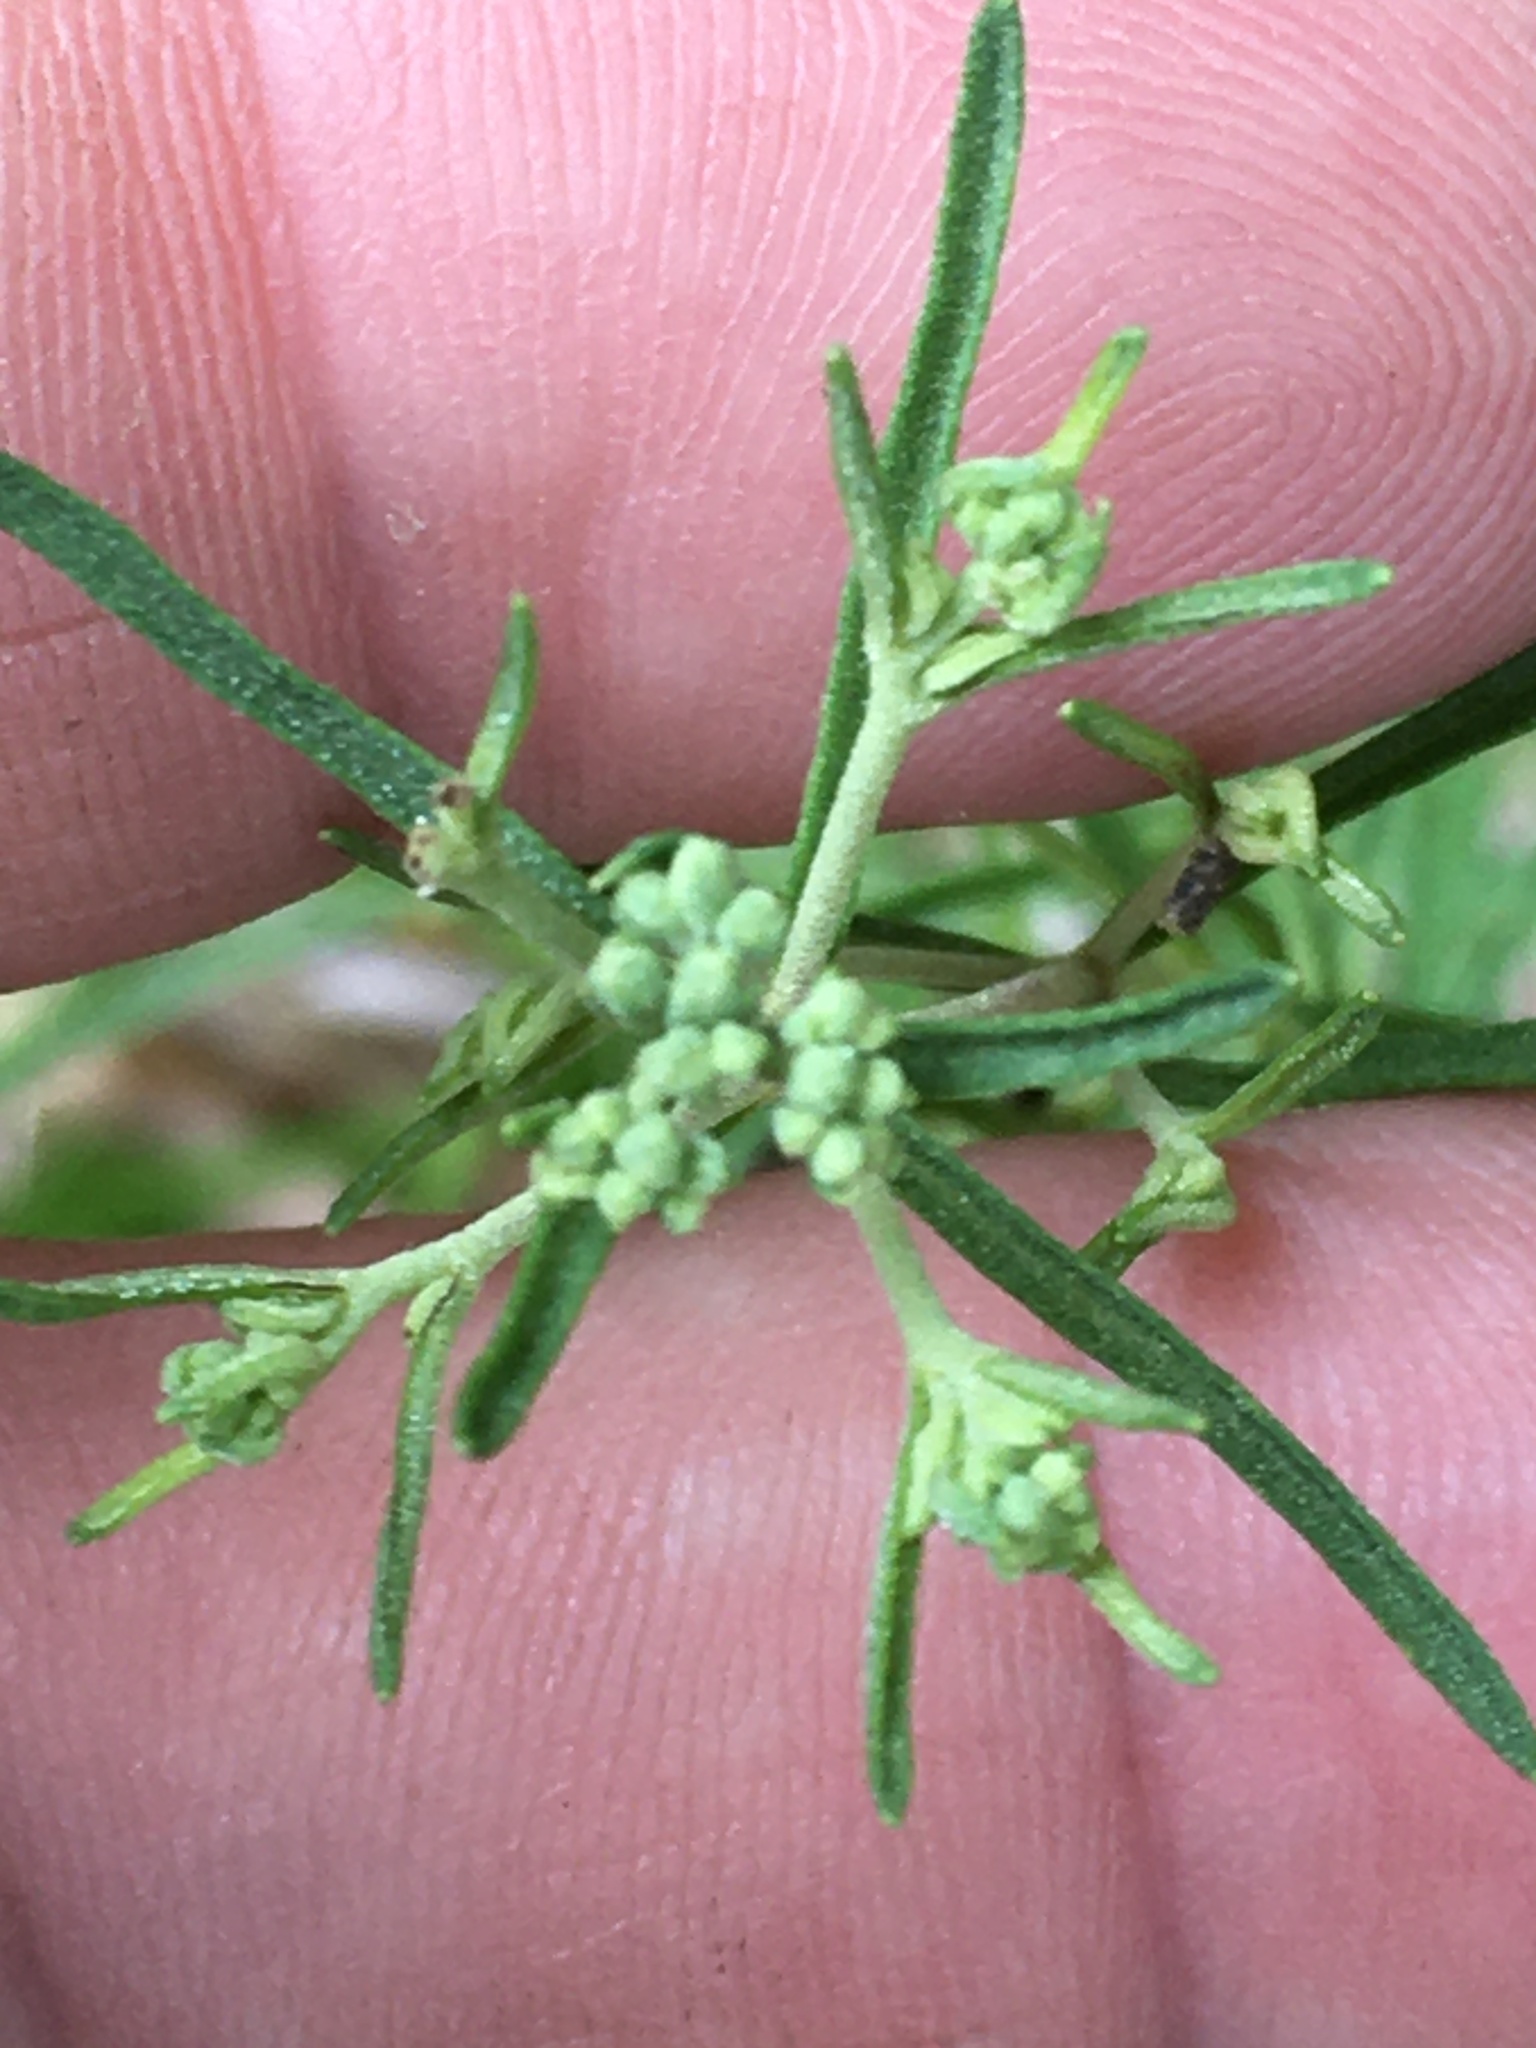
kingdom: Plantae
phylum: Tracheophyta
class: Magnoliopsida
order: Asterales
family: Asteraceae
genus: Eupatorium
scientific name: Eupatorium hyssopifolium
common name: Hyssop-leaf thoroughwort
